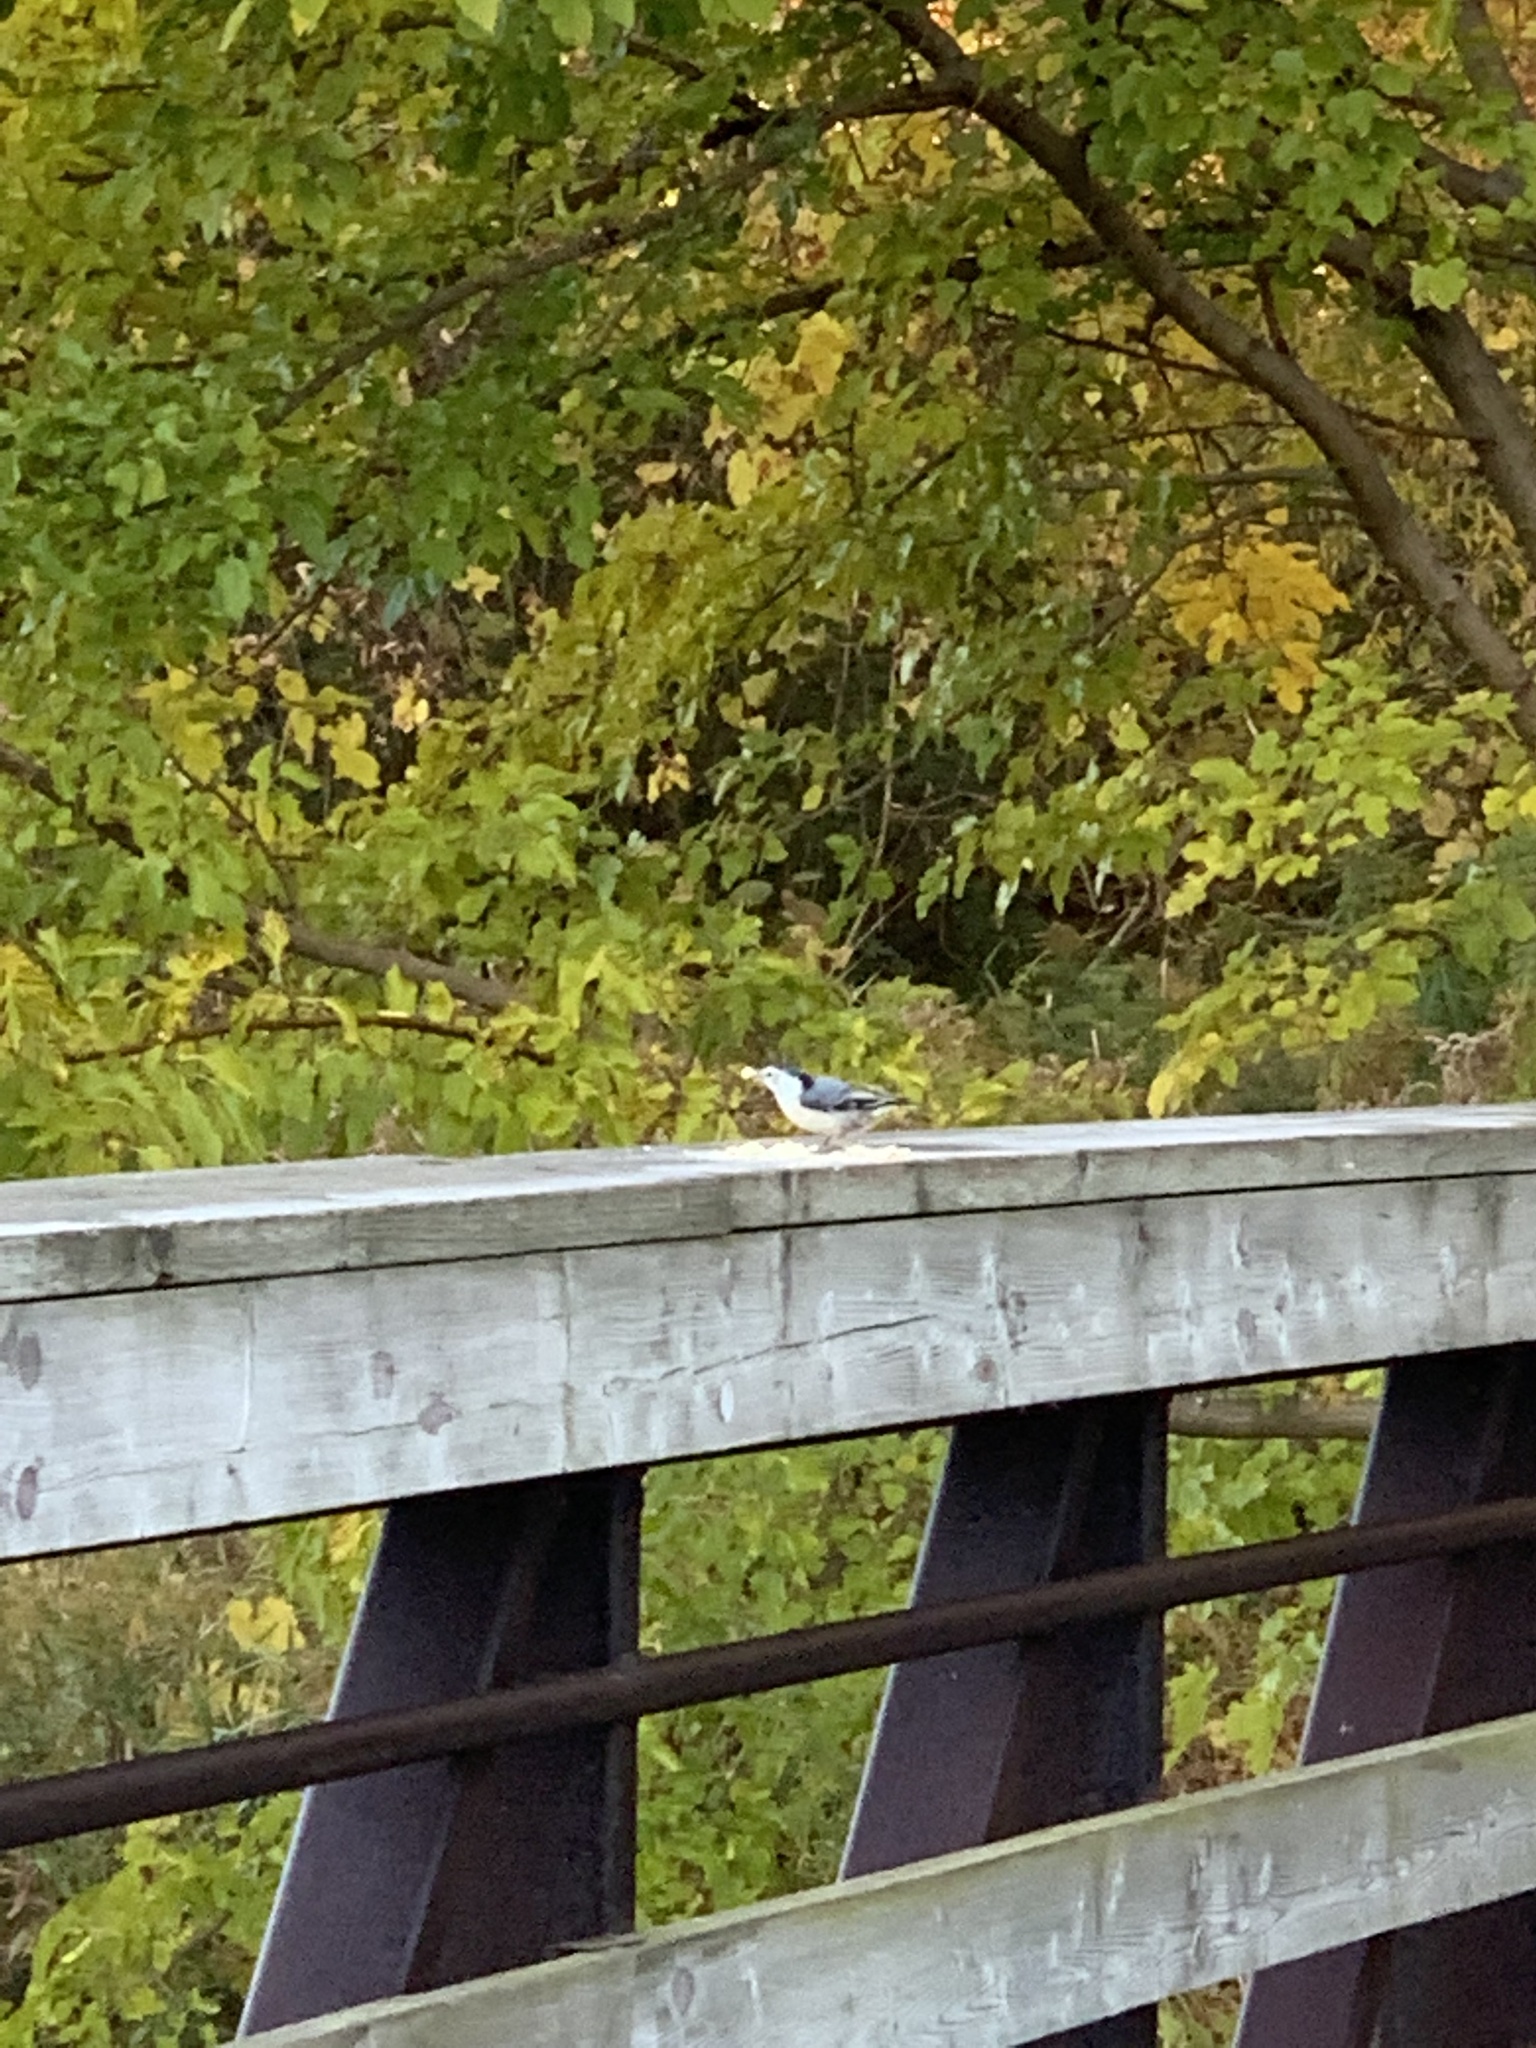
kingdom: Animalia
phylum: Chordata
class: Aves
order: Passeriformes
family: Sittidae
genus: Sitta
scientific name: Sitta carolinensis
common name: White-breasted nuthatch
